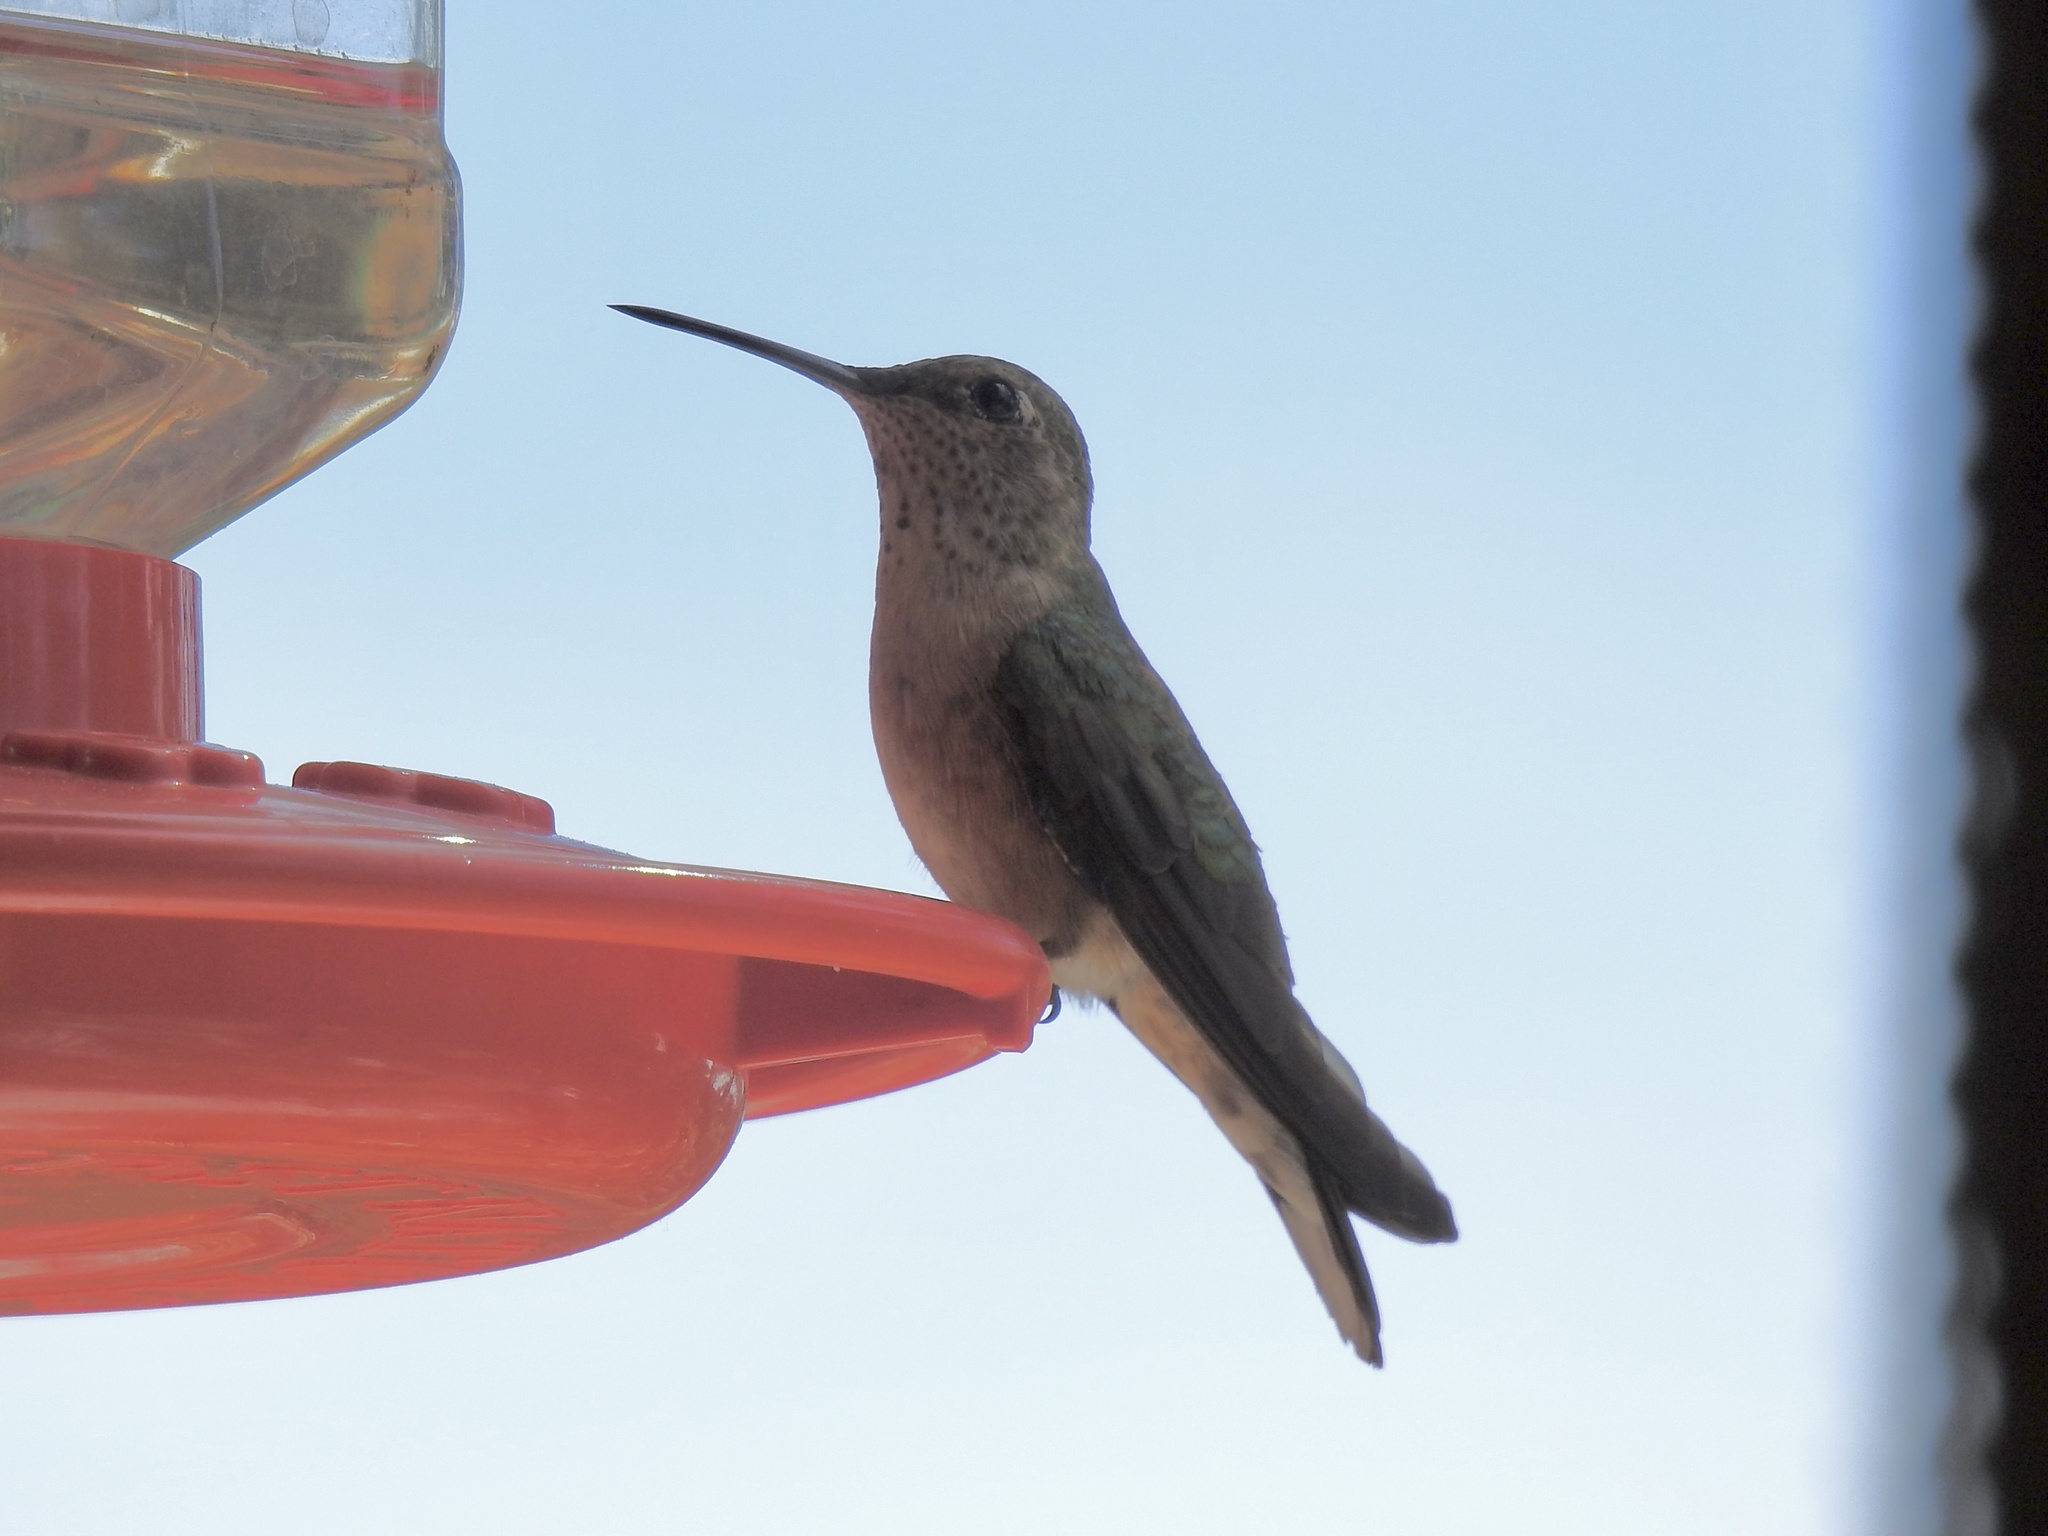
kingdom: Animalia
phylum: Chordata
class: Aves
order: Apodiformes
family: Trochilidae
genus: Selasphorus
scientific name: Selasphorus platycercus
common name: Broad-tailed hummingbird
